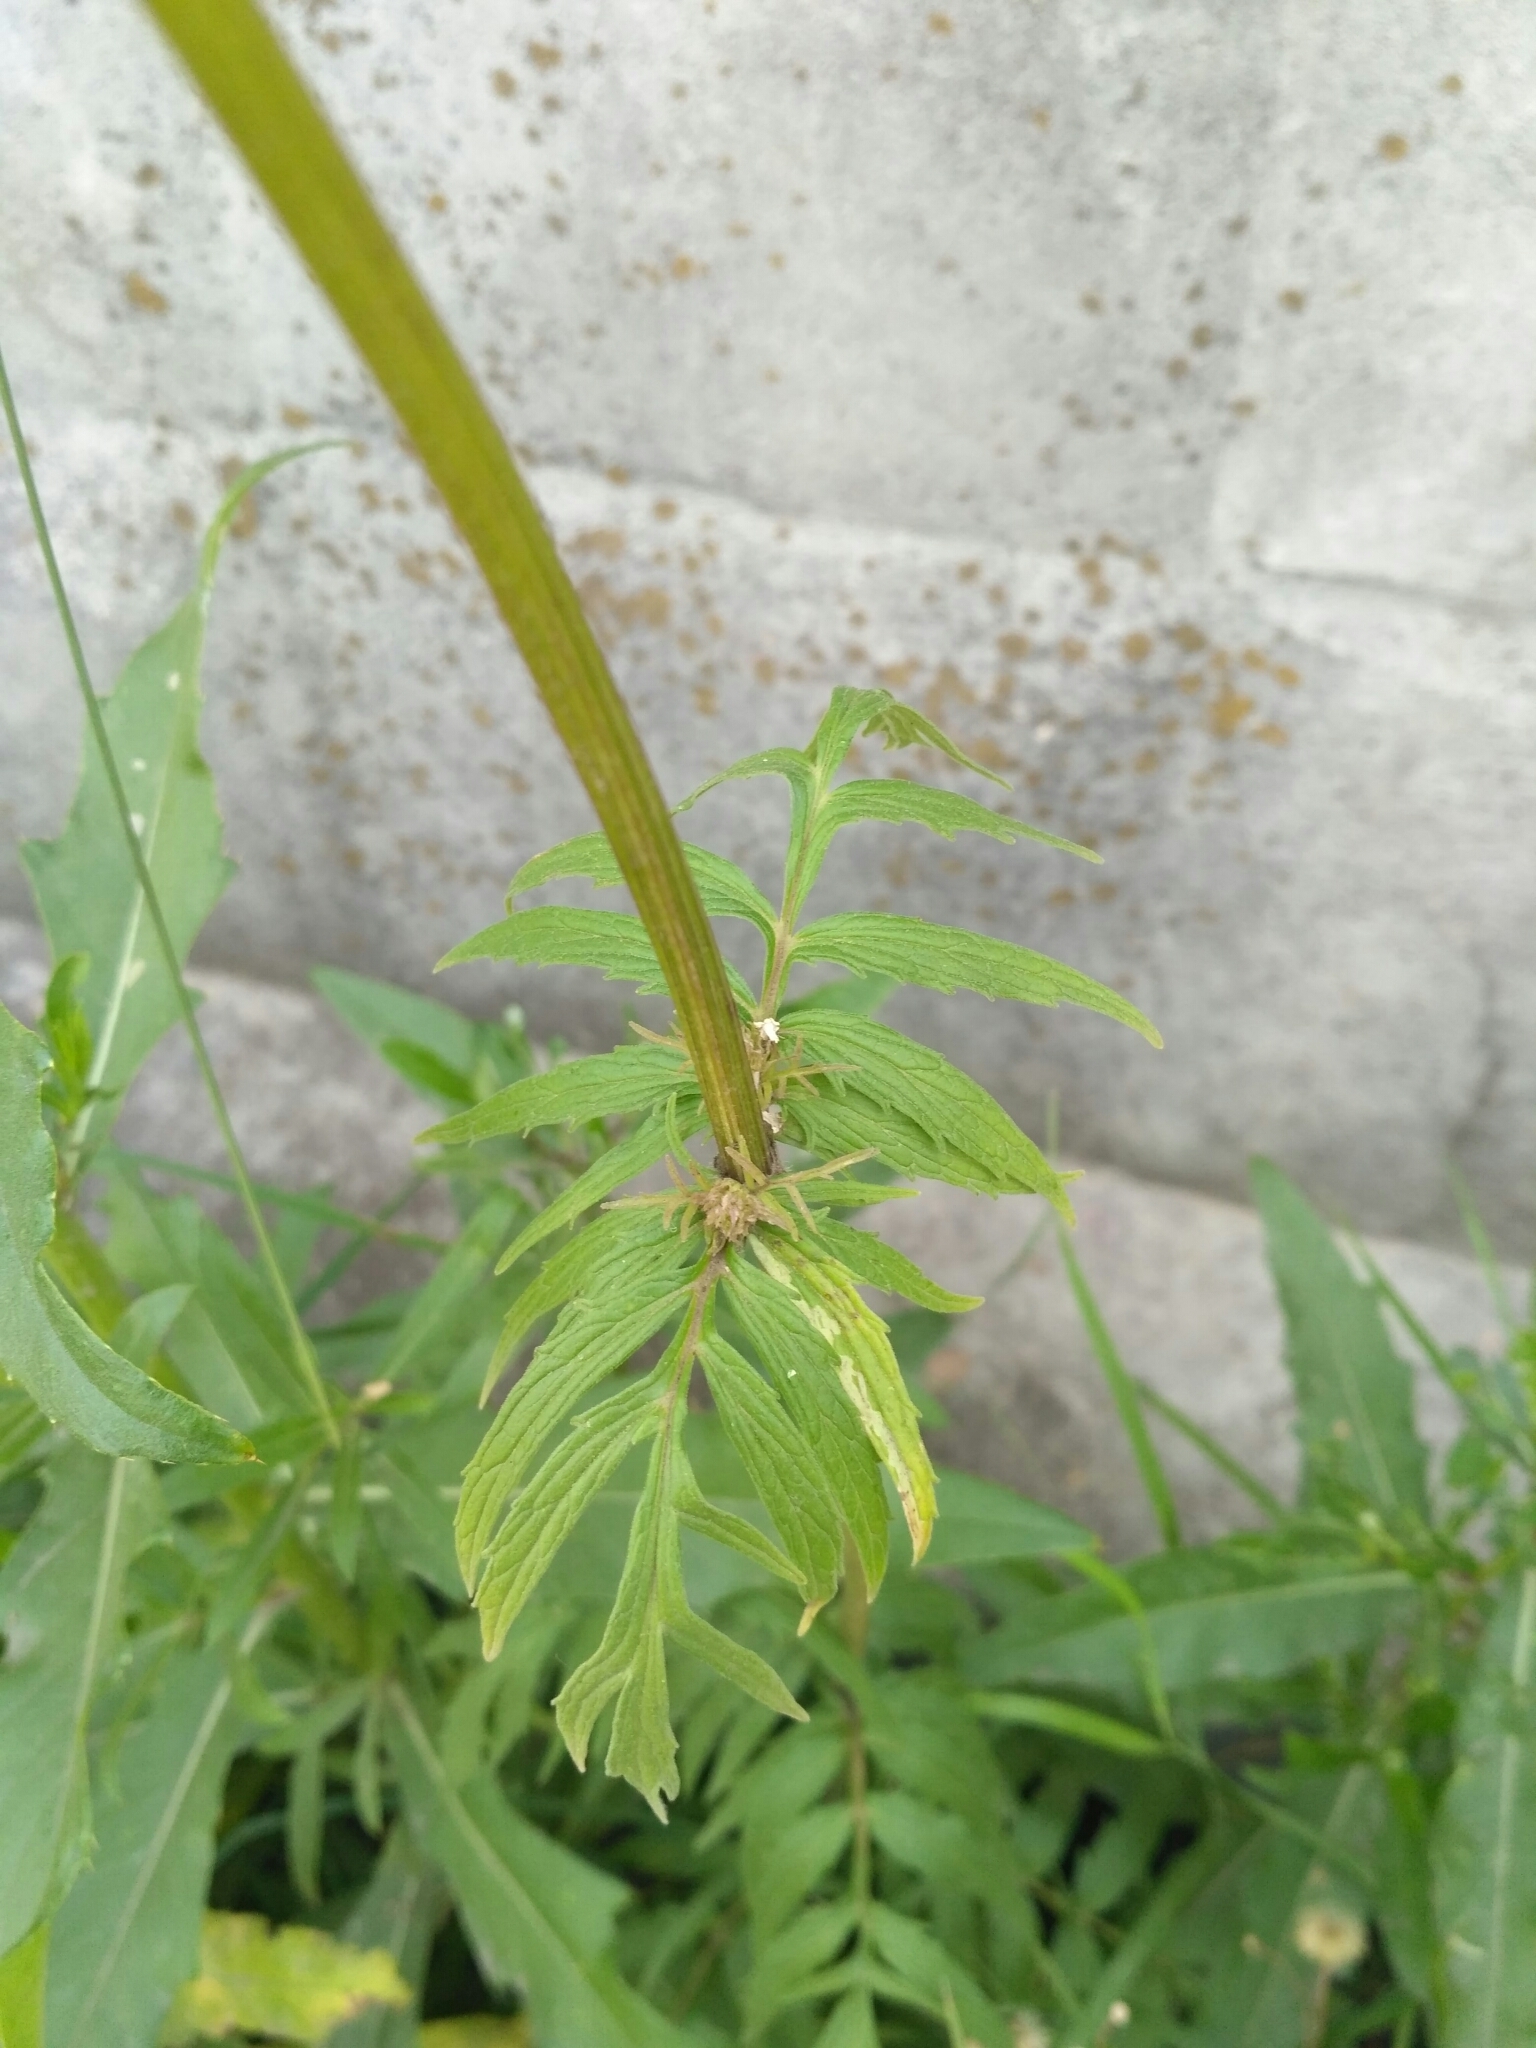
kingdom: Plantae
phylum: Tracheophyta
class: Magnoliopsida
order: Dipsacales
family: Caprifoliaceae
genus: Valeriana
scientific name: Valeriana officinalis
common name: Common valerian
